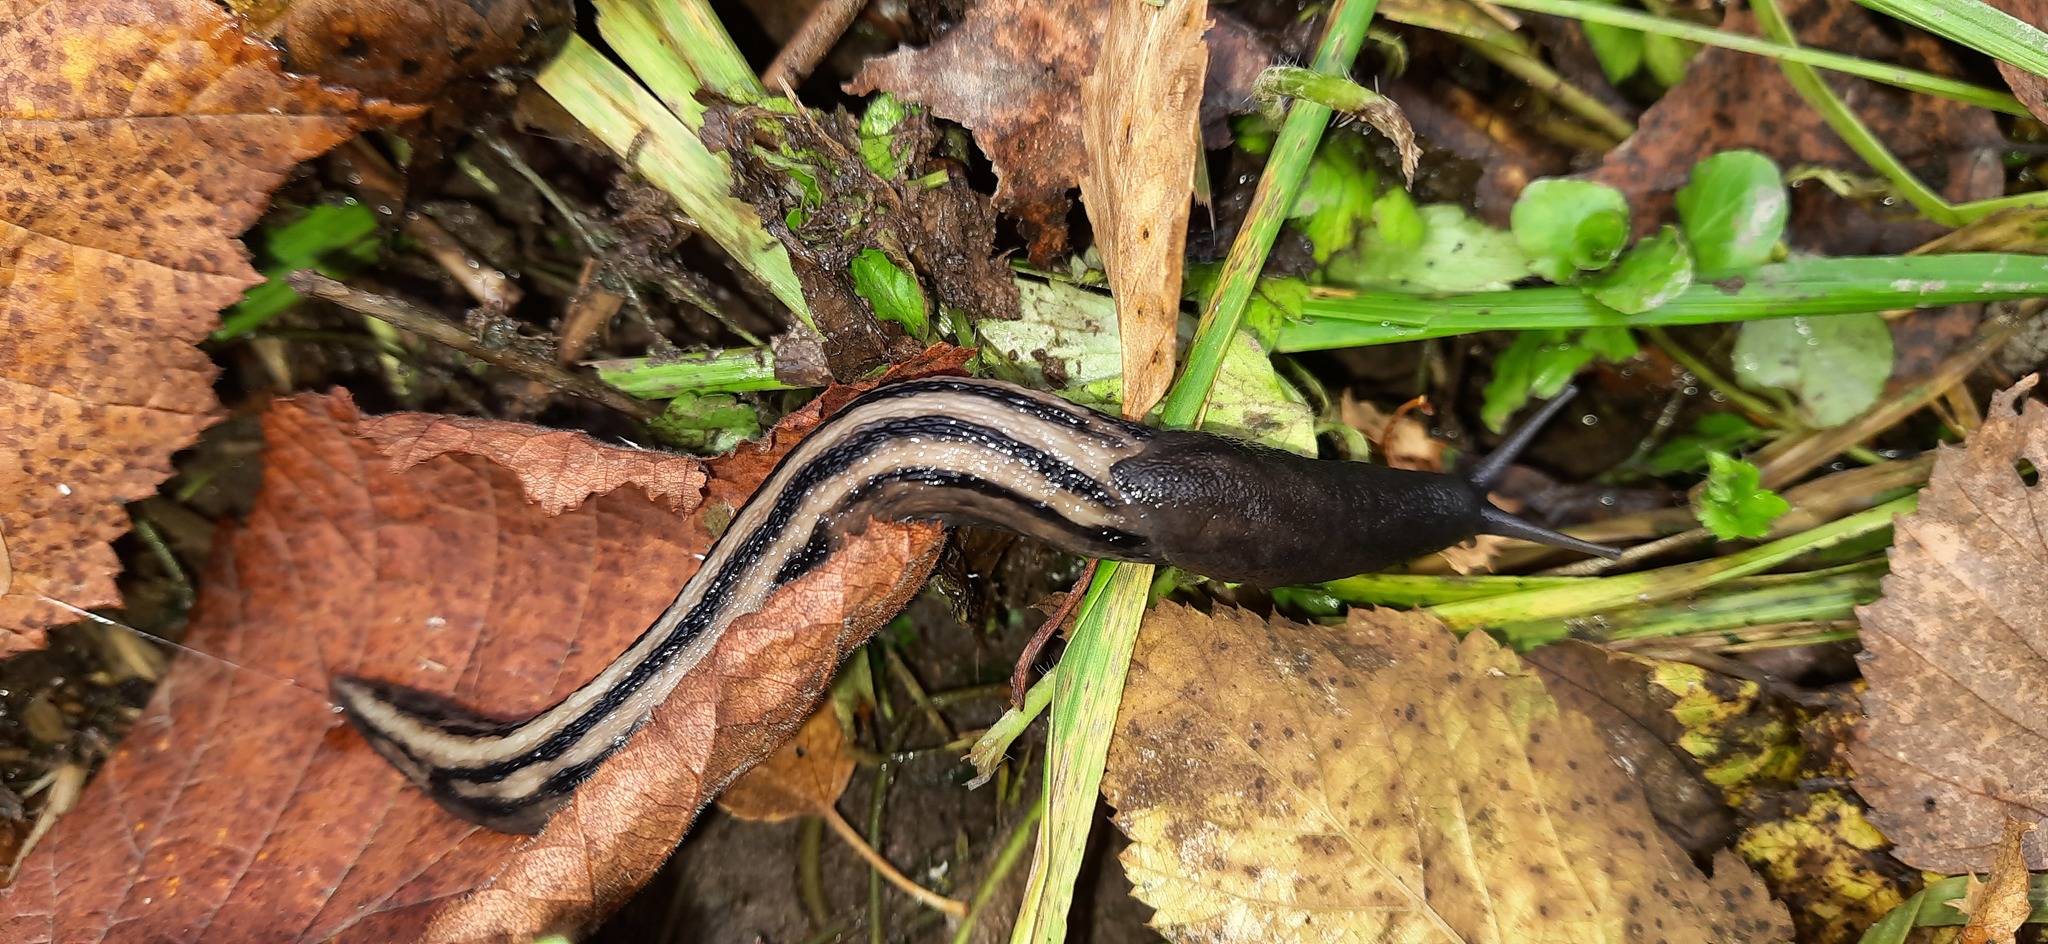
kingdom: Animalia
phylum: Mollusca
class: Gastropoda
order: Stylommatophora
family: Limacidae
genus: Limax
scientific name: Limax cinereoniger
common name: Ash-black slug
